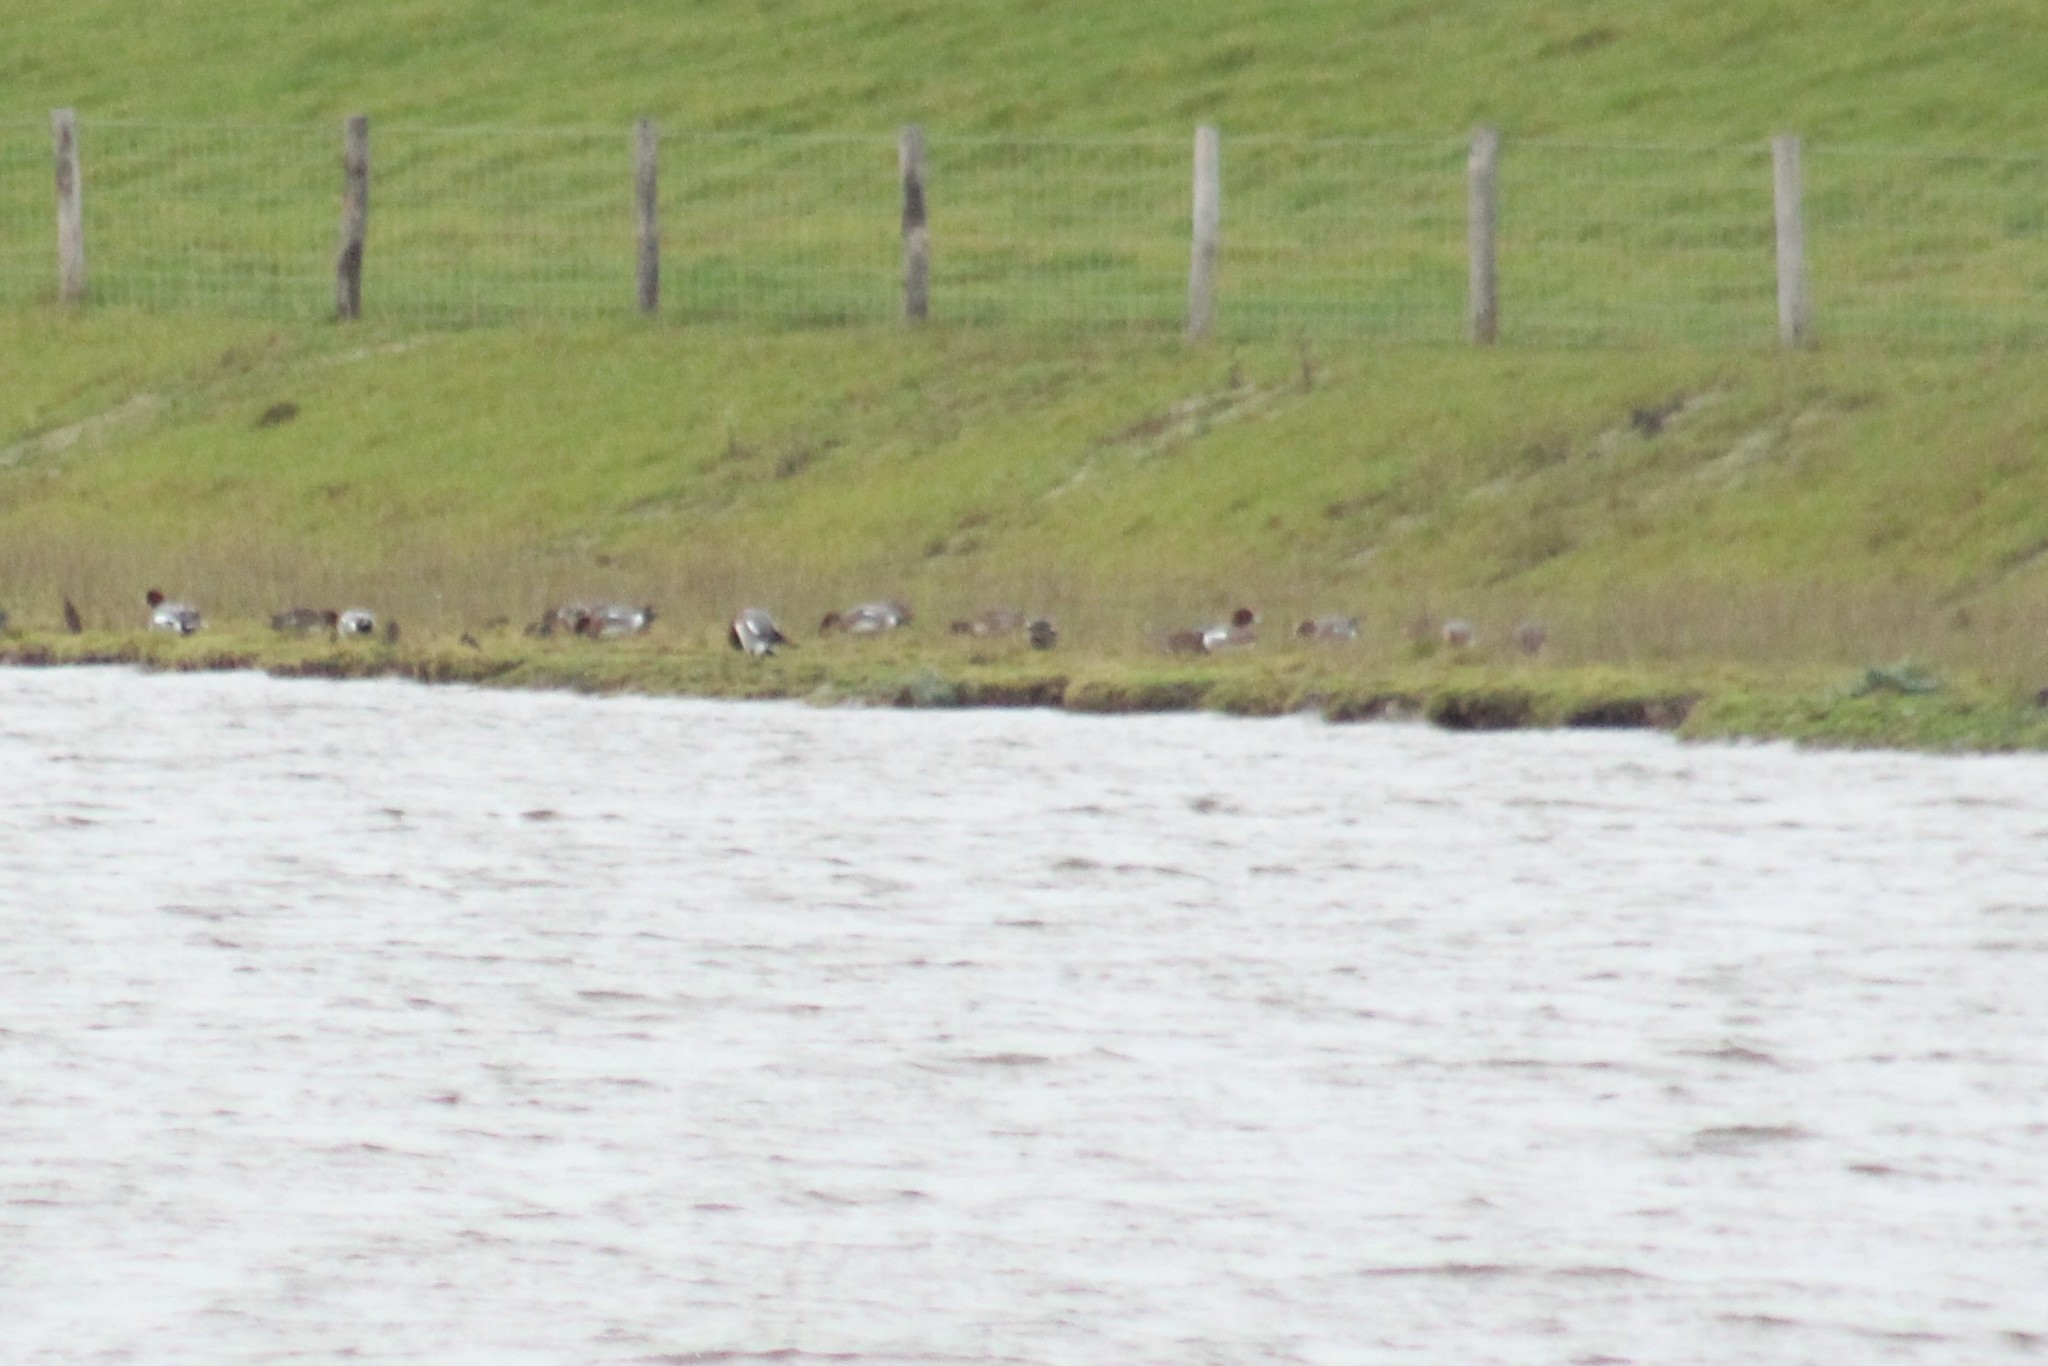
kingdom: Animalia
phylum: Chordata
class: Aves
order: Anseriformes
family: Anatidae
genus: Mareca
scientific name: Mareca penelope
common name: Eurasian wigeon
